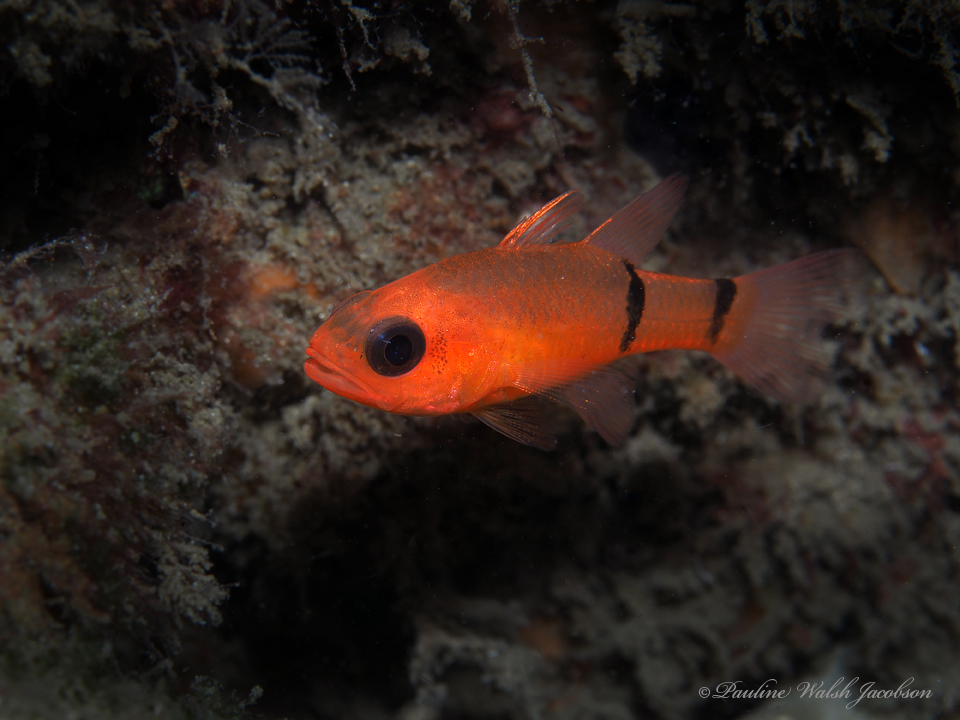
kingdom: Animalia
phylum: Chordata
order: Perciformes
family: Apogonidae
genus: Apogon
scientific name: Apogon binotatus
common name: Barred cardinalfish
